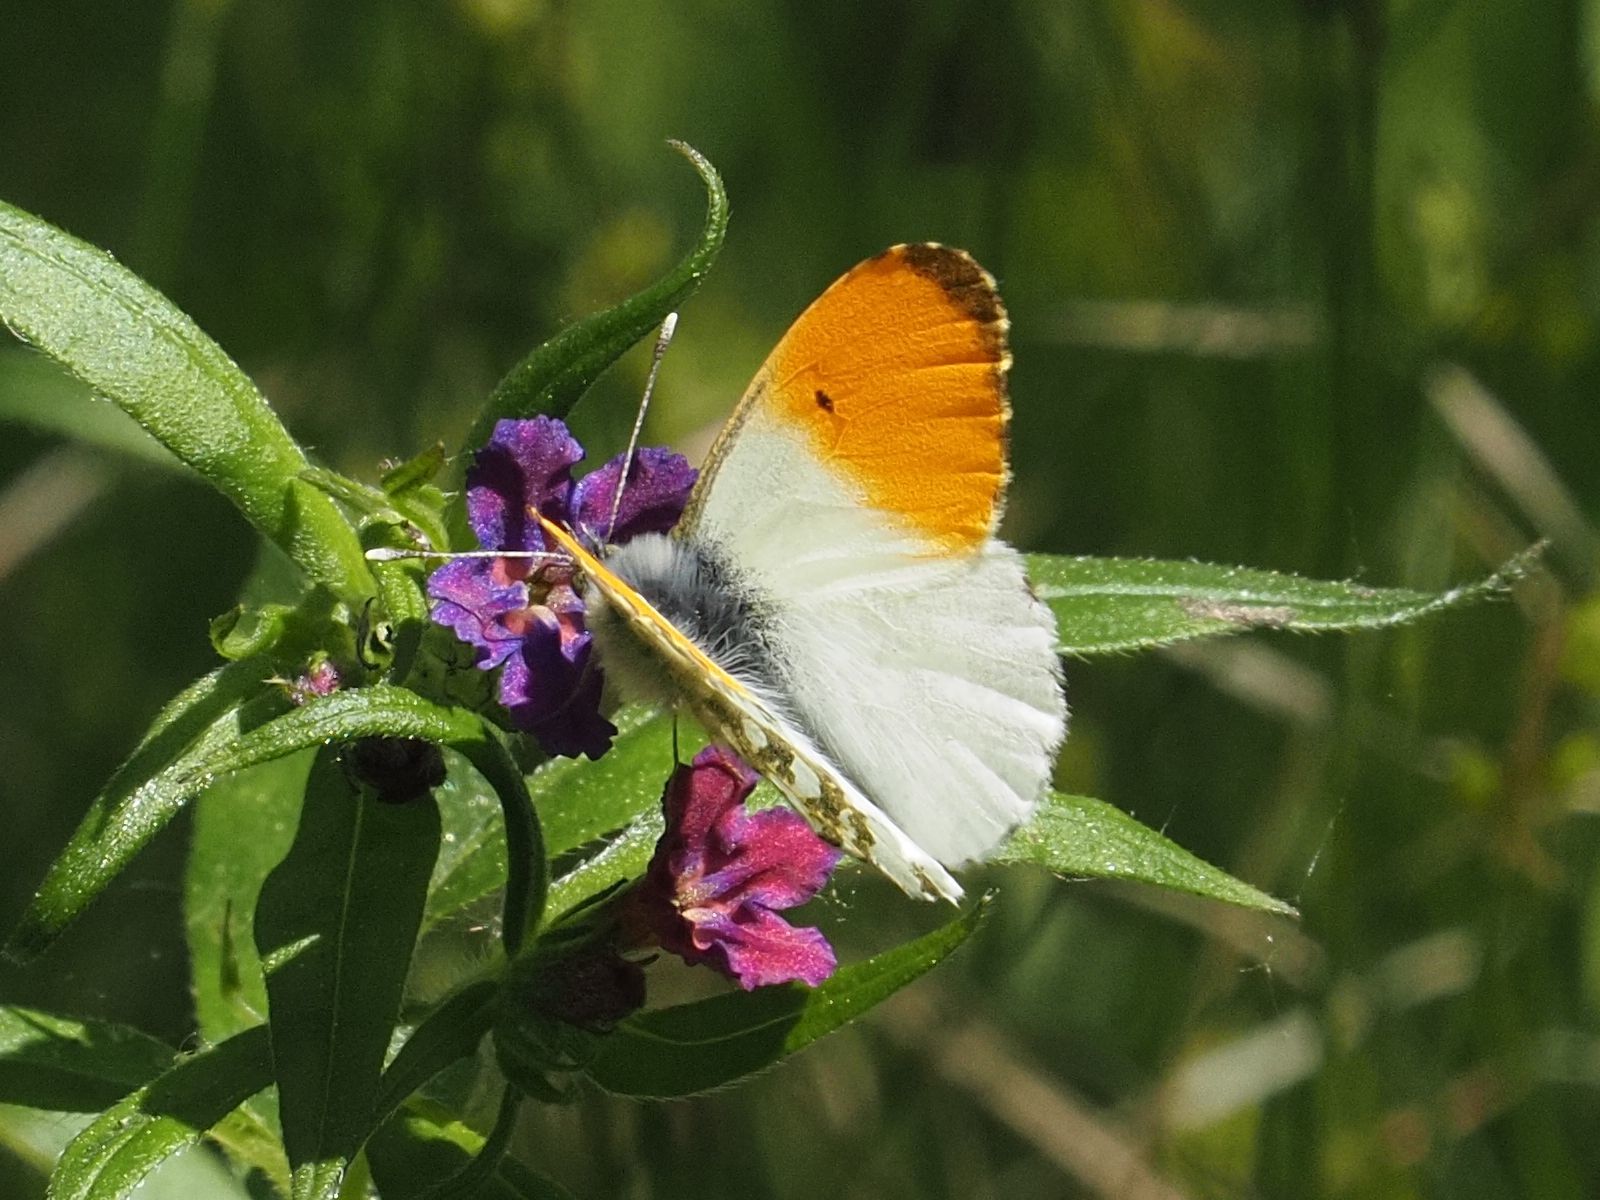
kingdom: Animalia
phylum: Arthropoda
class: Insecta
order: Lepidoptera
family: Pieridae
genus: Anthocharis
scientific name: Anthocharis cardamines
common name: Orange-tip
